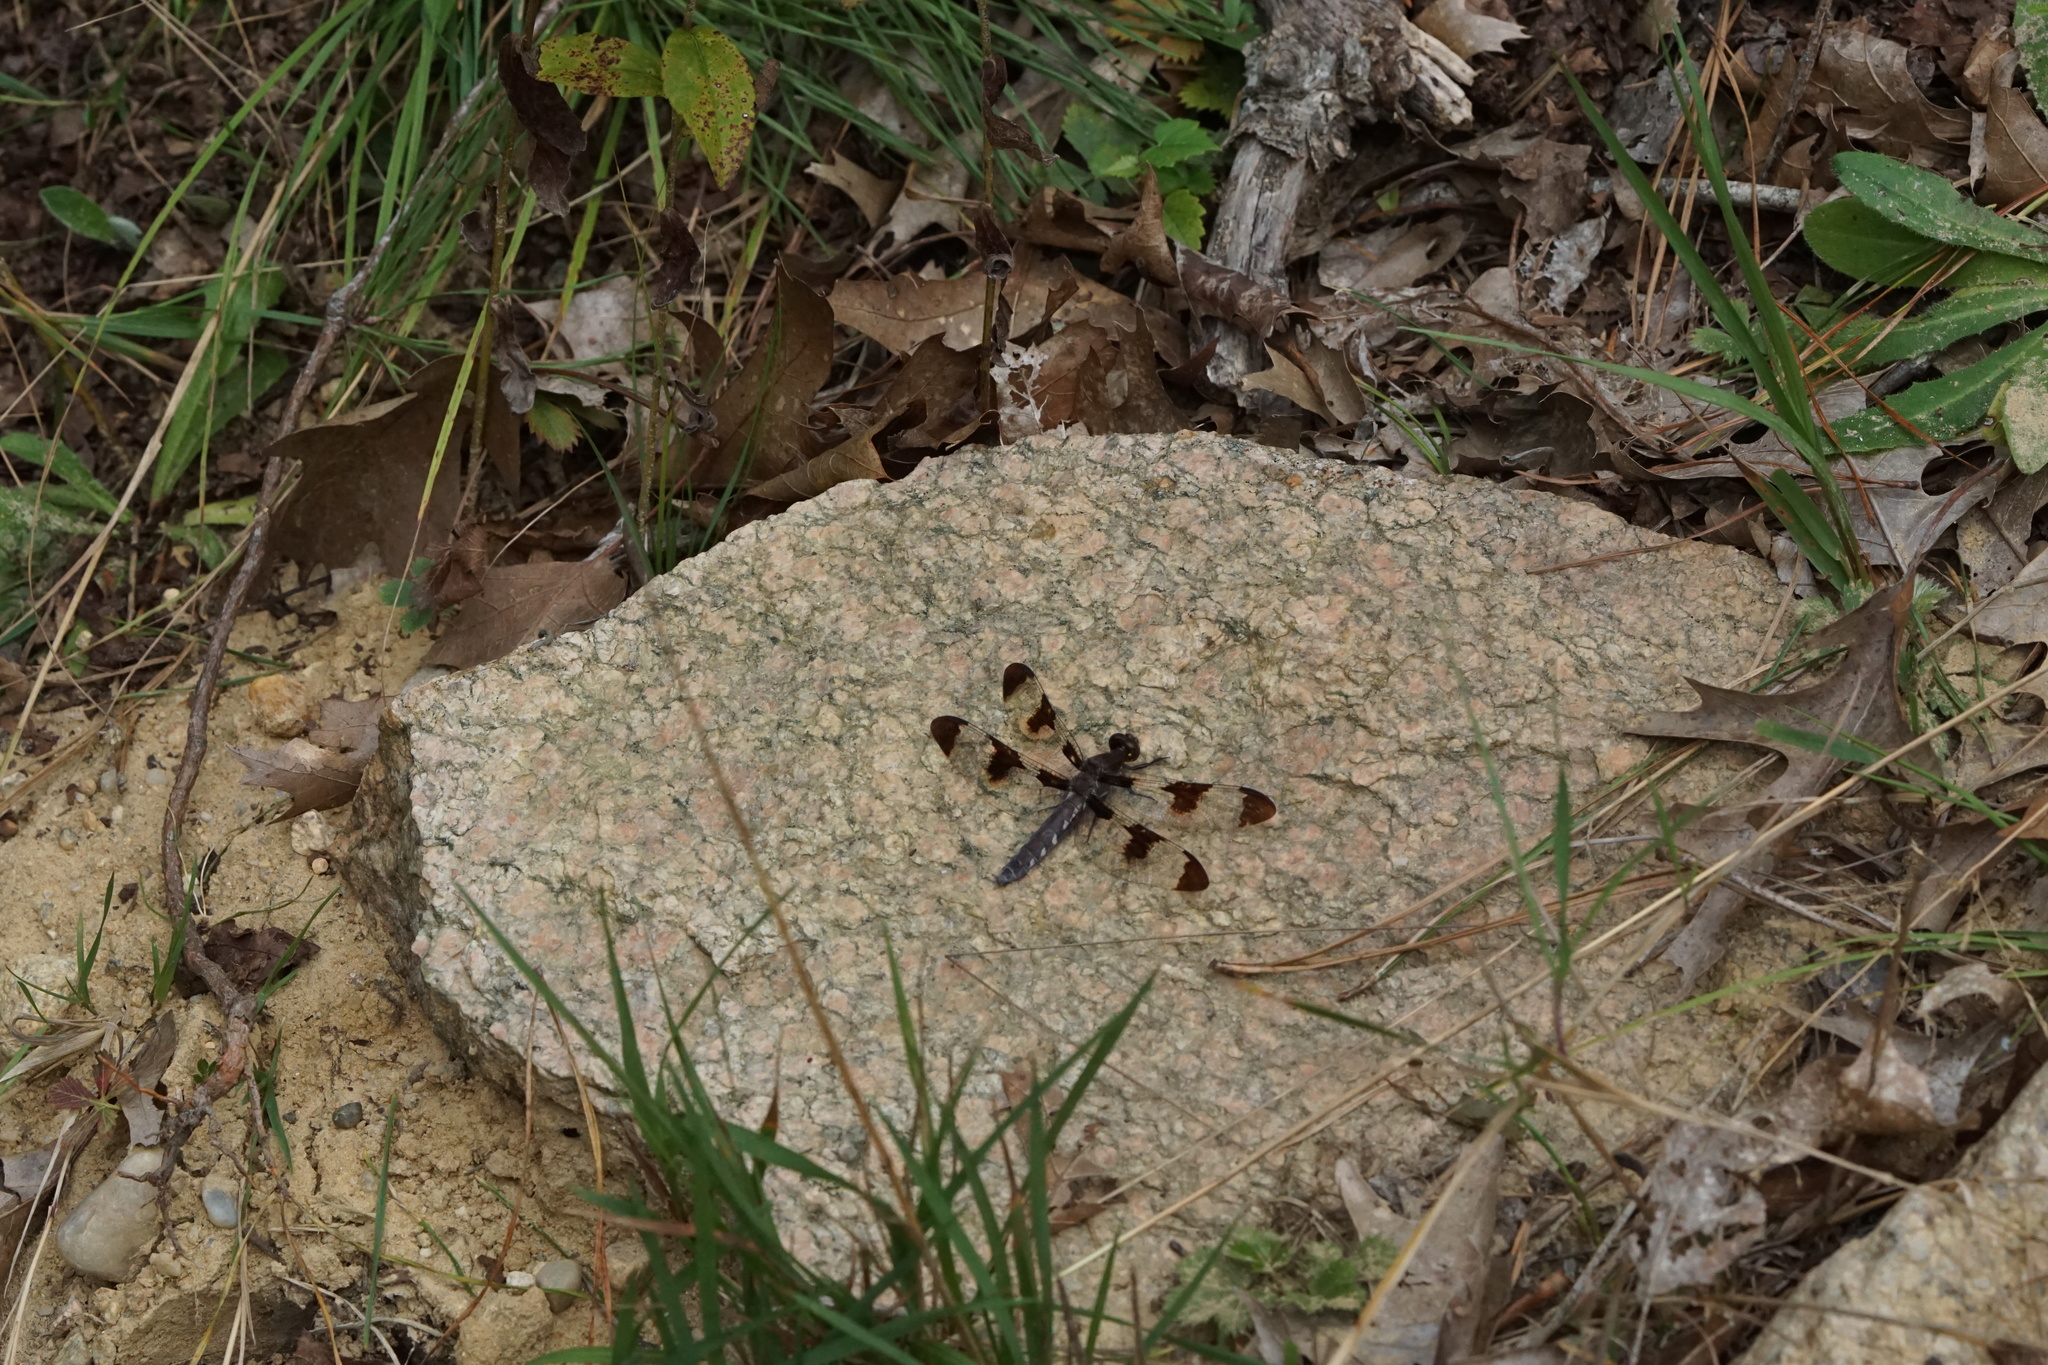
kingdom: Animalia
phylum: Arthropoda
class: Insecta
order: Odonata
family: Libellulidae
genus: Plathemis
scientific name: Plathemis lydia
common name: Common whitetail
